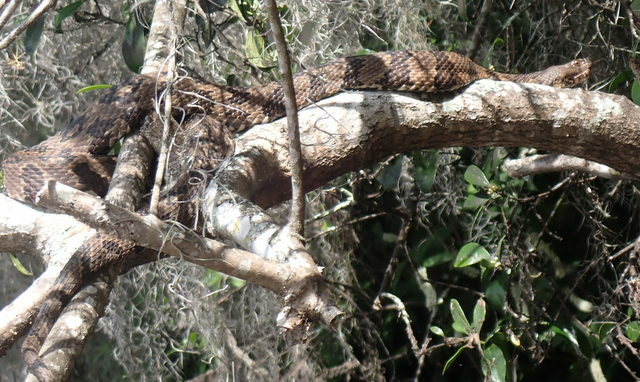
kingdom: Animalia
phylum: Chordata
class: Squamata
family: Colubridae
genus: Nerodia
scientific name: Nerodia taxispilota
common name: Brown water snake
